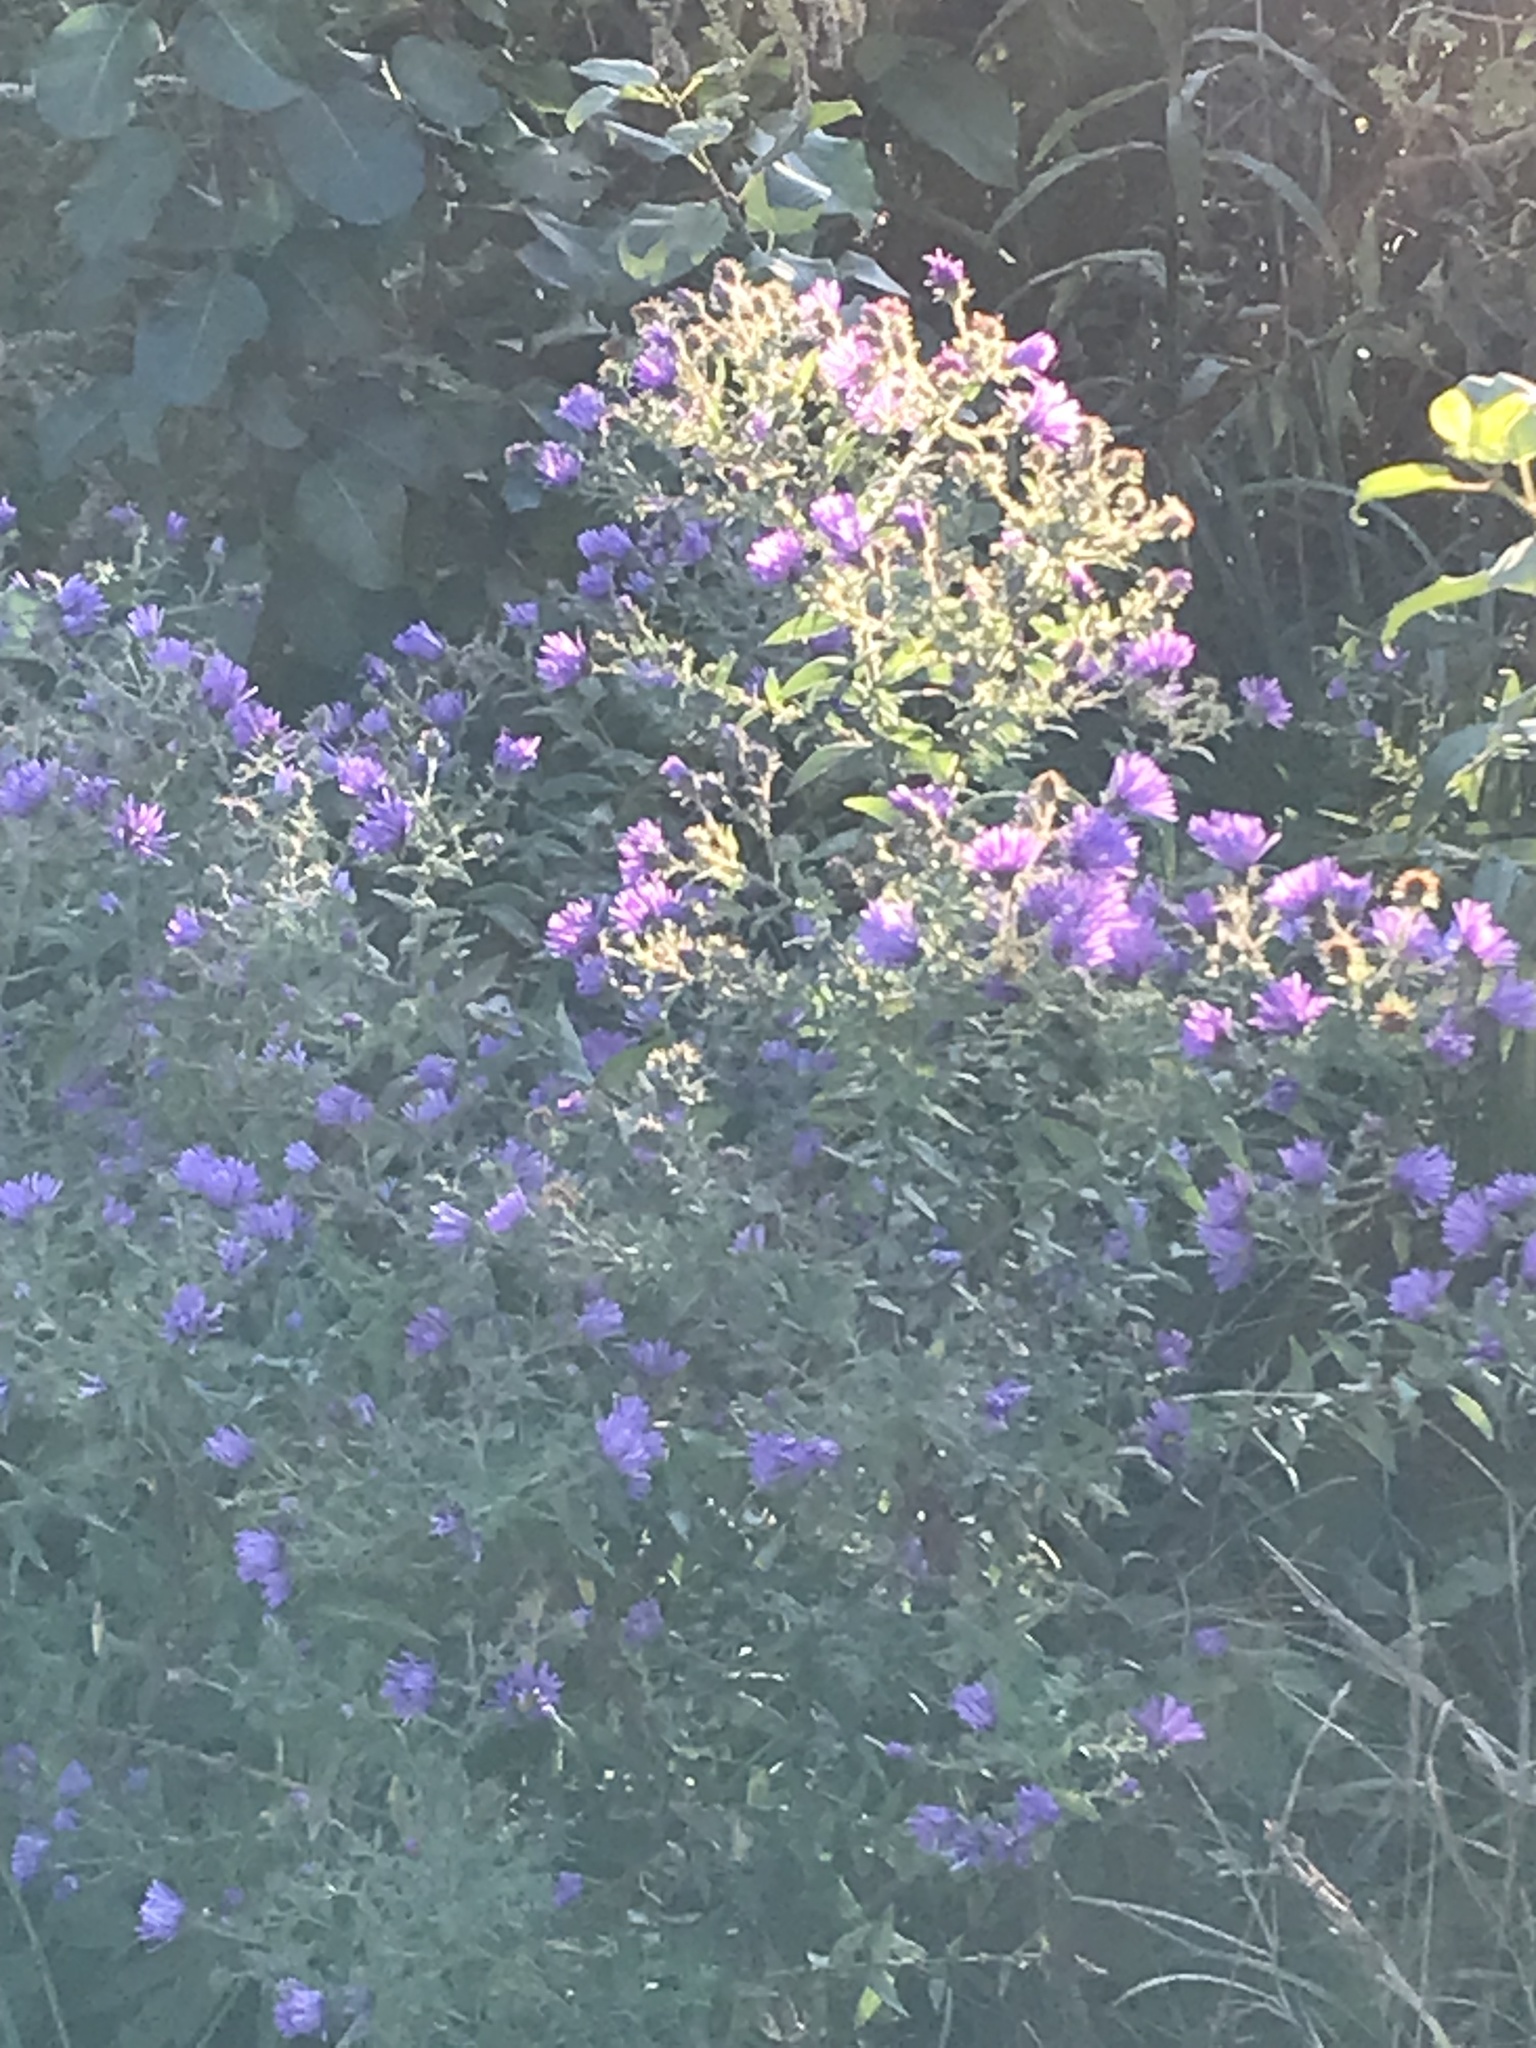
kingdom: Plantae
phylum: Tracheophyta
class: Magnoliopsida
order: Asterales
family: Asteraceae
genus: Symphyotrichum
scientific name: Symphyotrichum novae-angliae
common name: Michaelmas daisy
